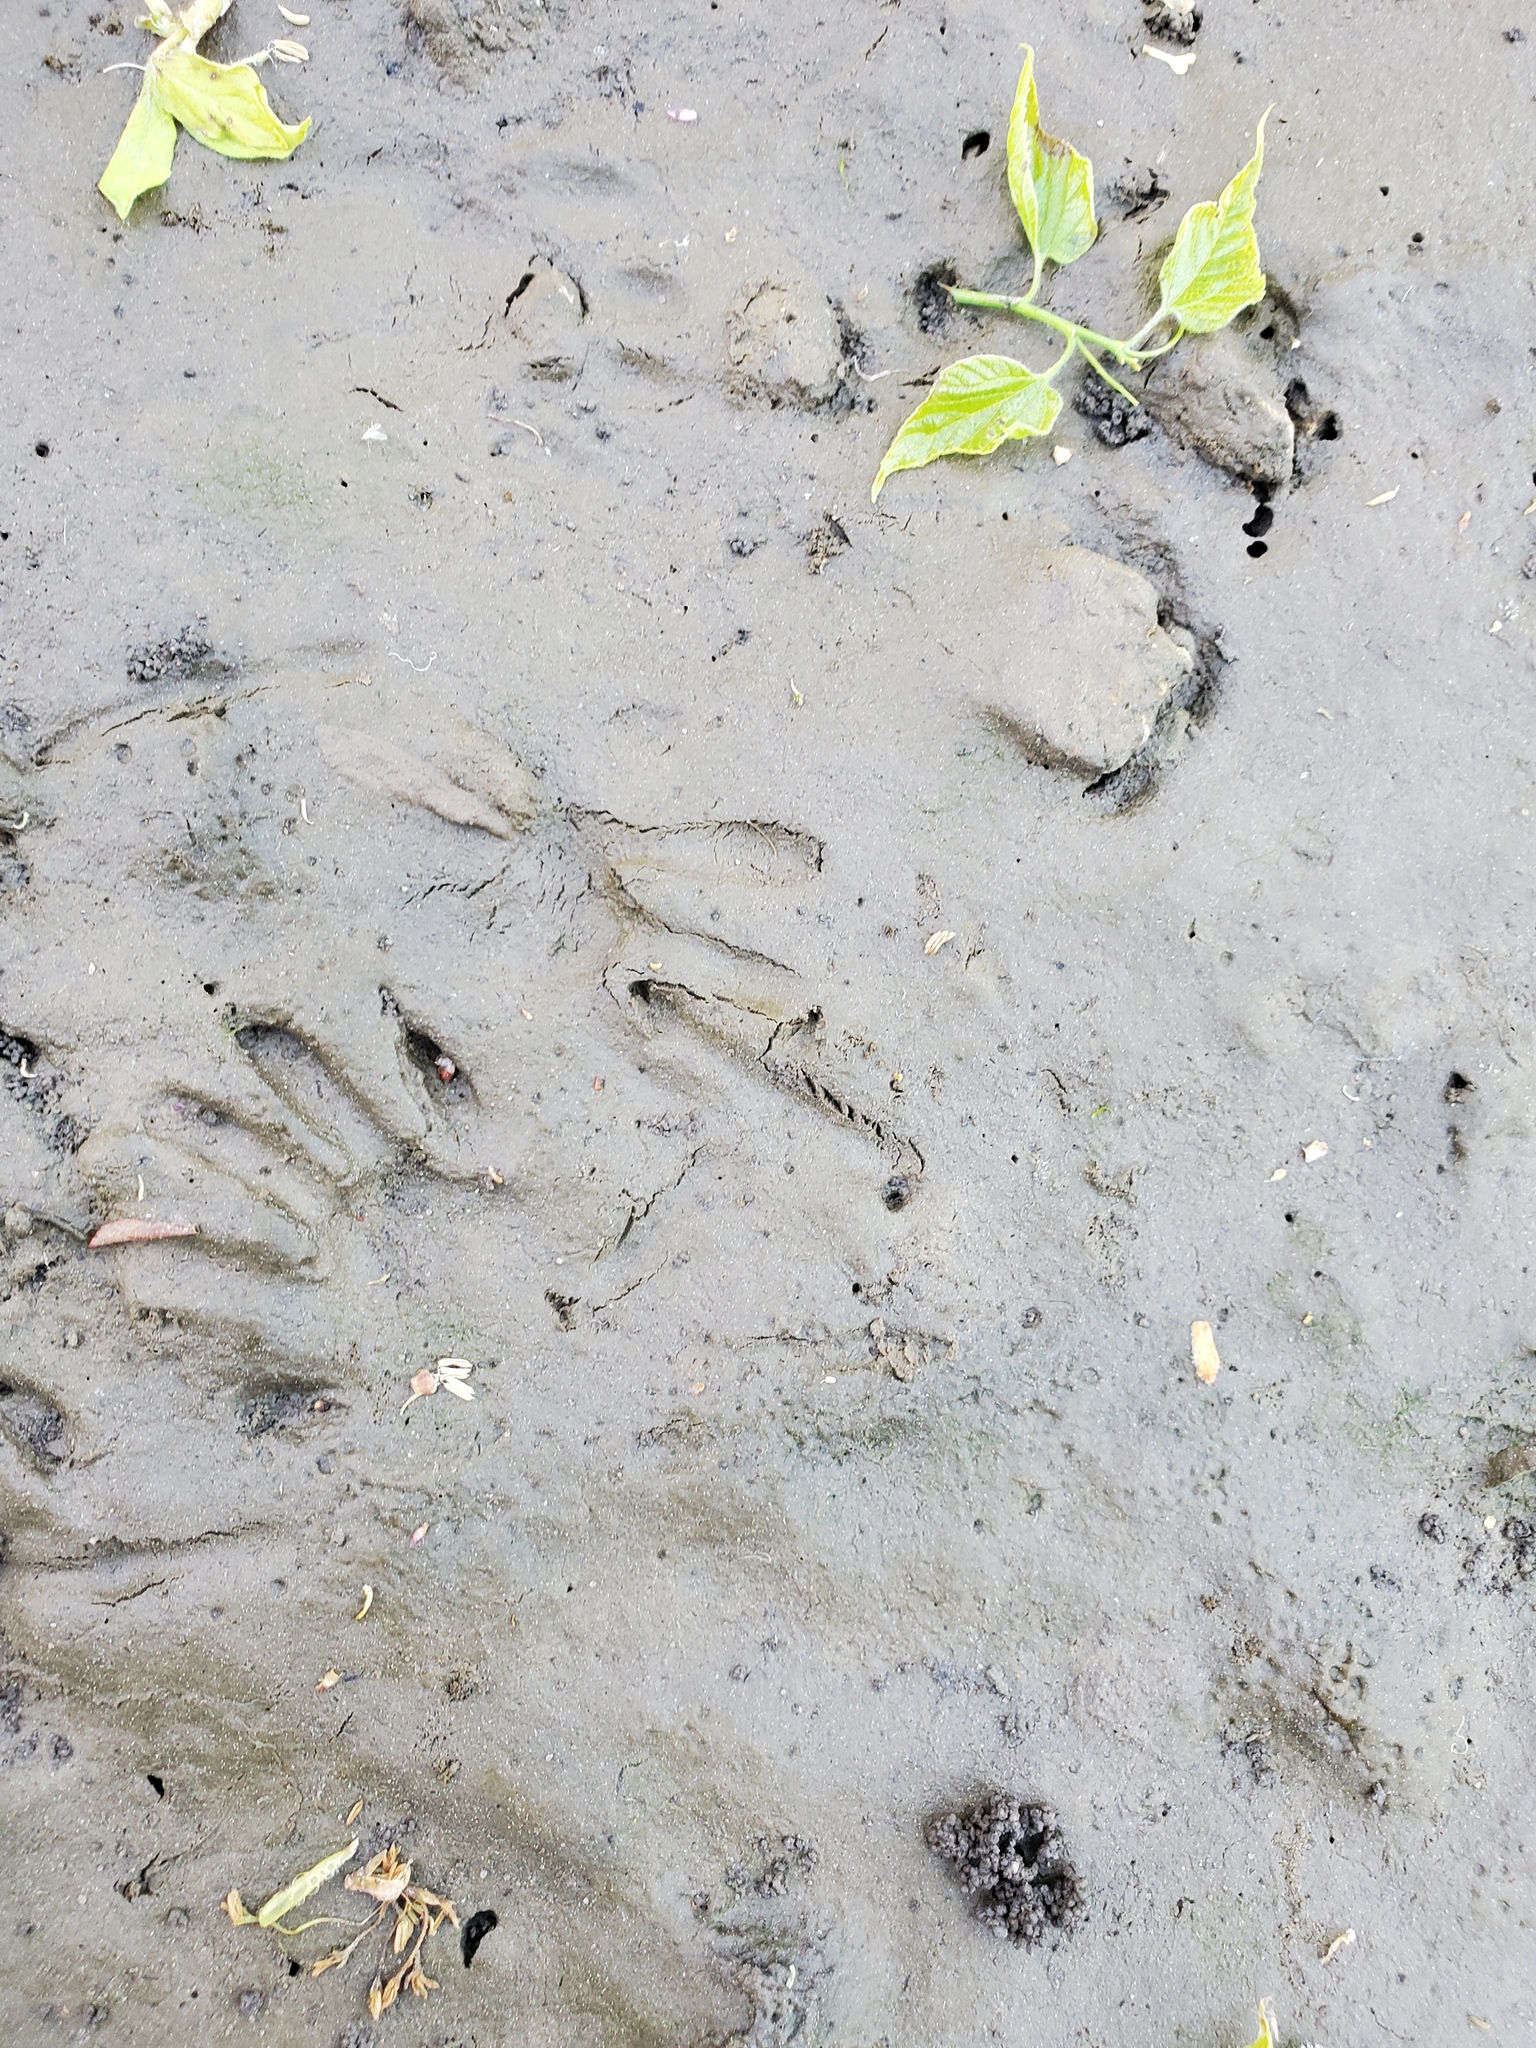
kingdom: Animalia
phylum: Chordata
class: Mammalia
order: Carnivora
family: Procyonidae
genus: Procyon
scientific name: Procyon lotor
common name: Raccoon
